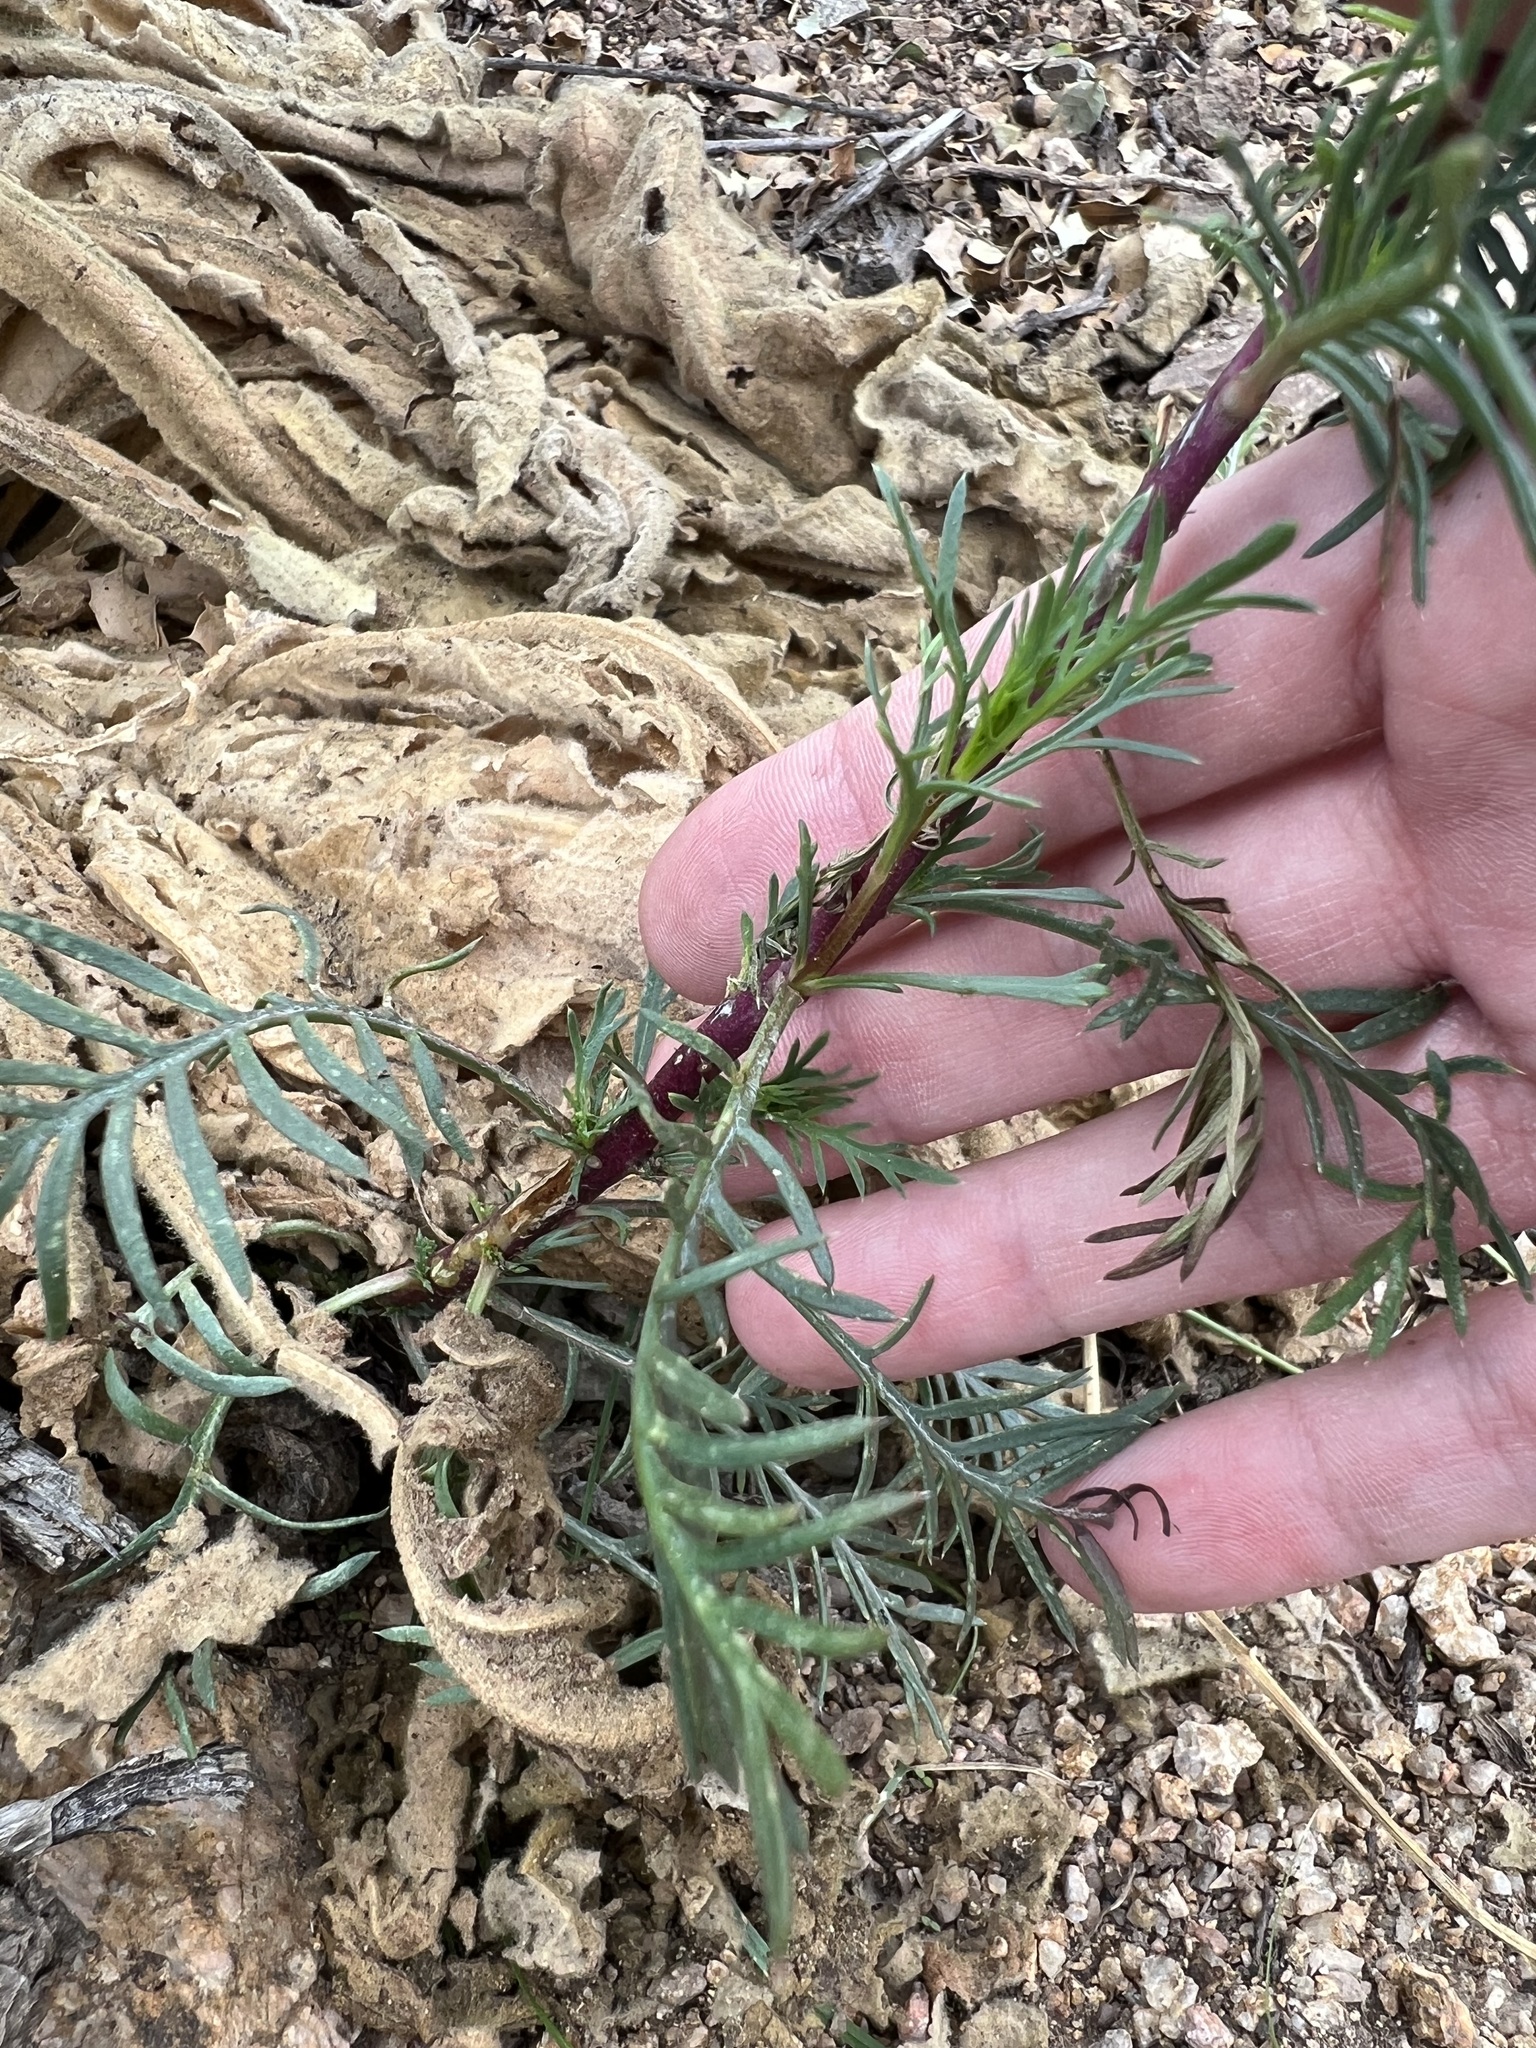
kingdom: Plantae
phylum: Tracheophyta
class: Magnoliopsida
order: Ericales
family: Polemoniaceae
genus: Ipomopsis
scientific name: Ipomopsis aggregata
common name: Scarlet gilia
